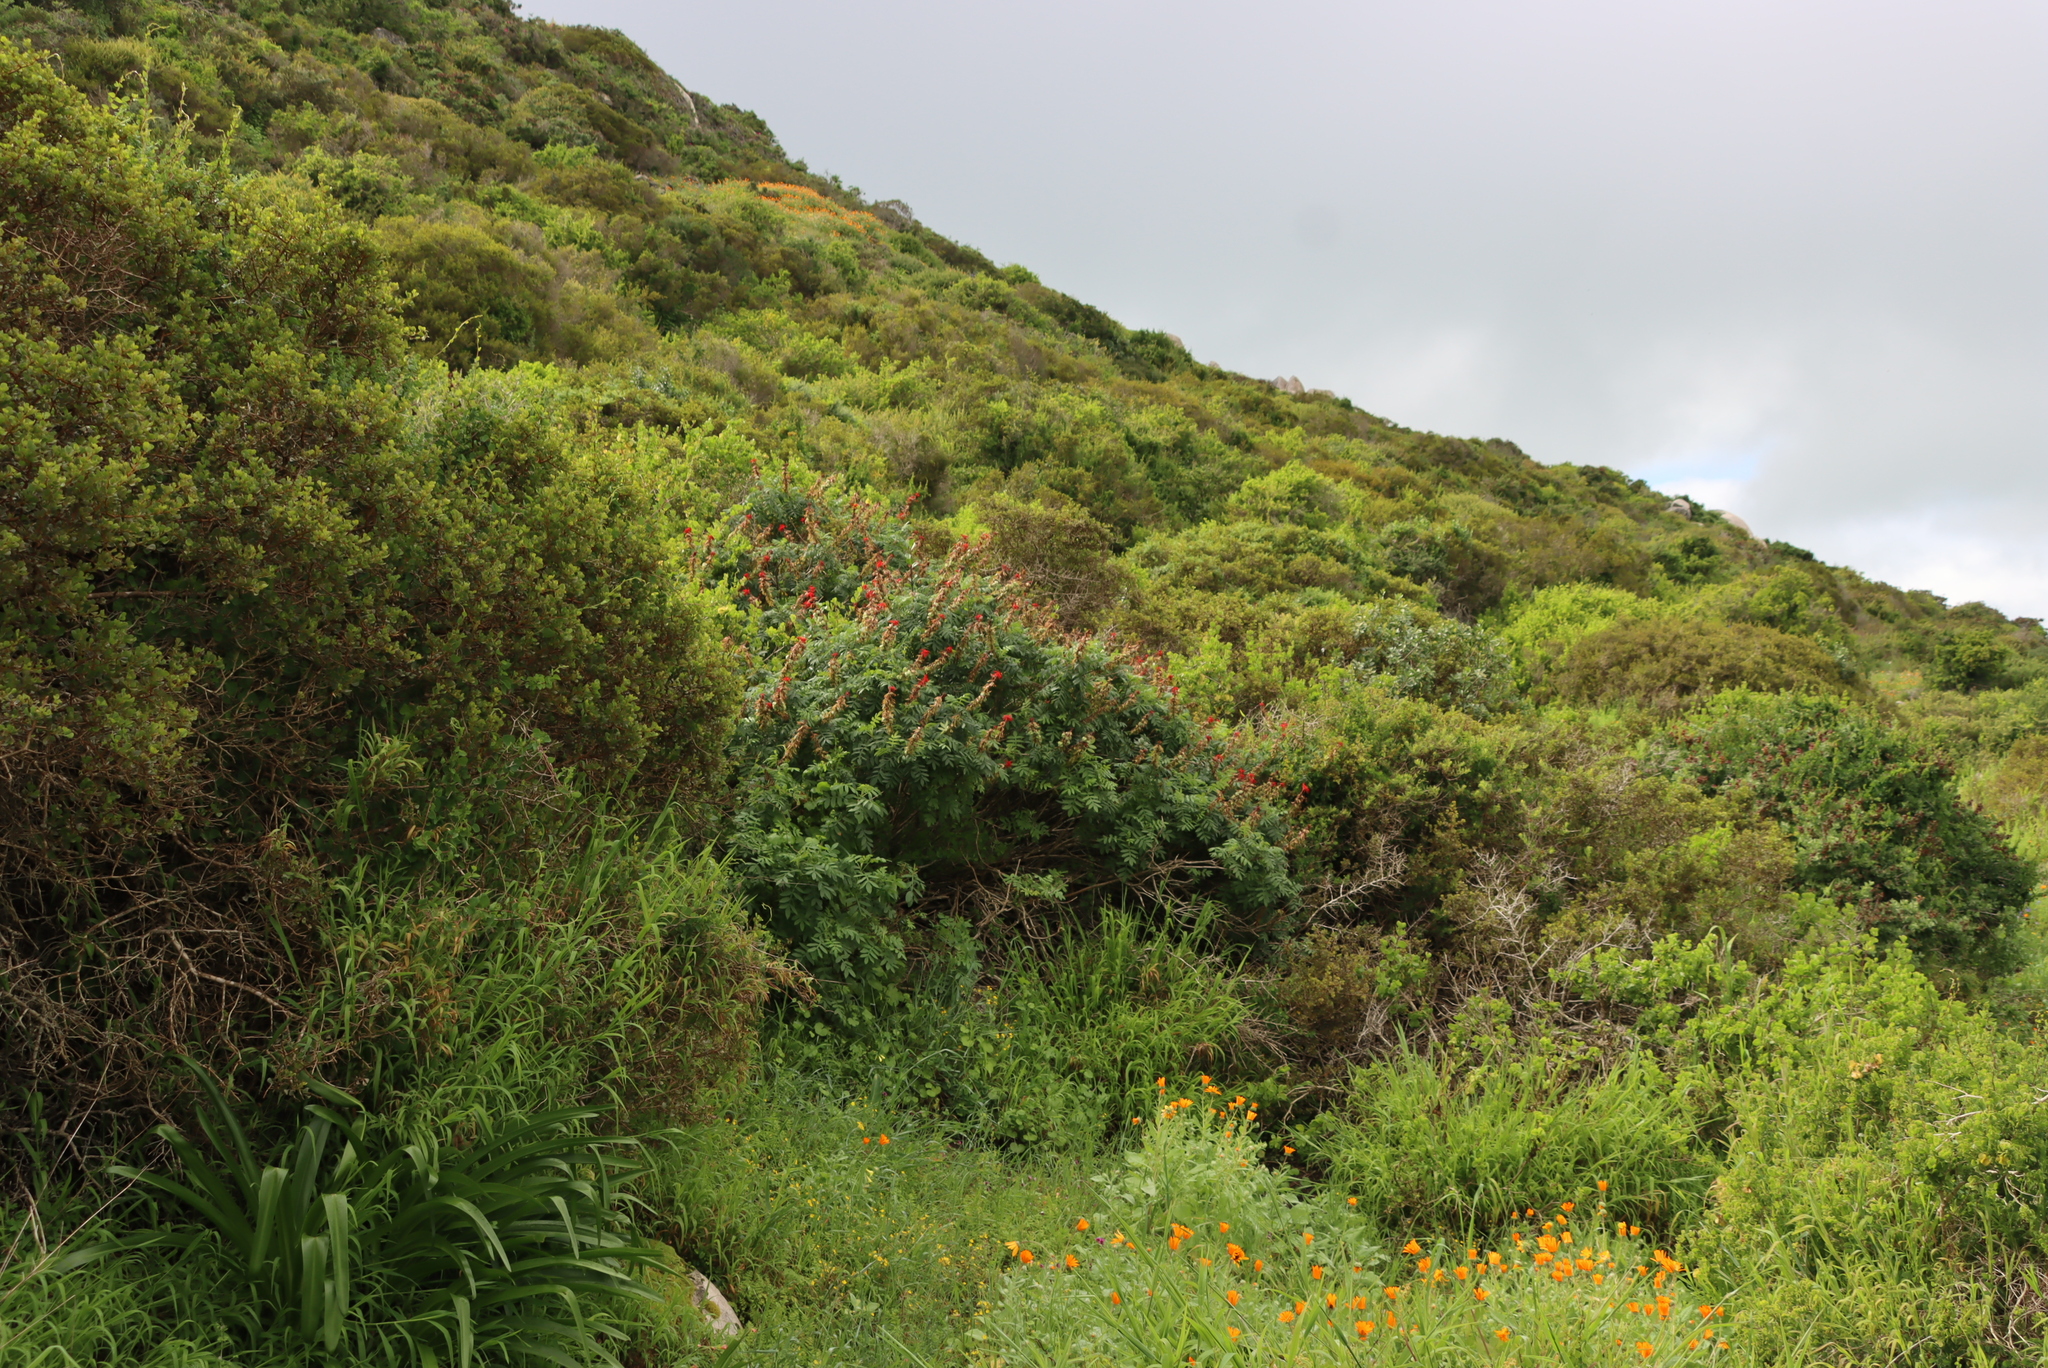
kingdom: Plantae
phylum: Tracheophyta
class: Magnoliopsida
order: Geraniales
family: Melianthaceae
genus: Melianthus
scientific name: Melianthus elongatus
